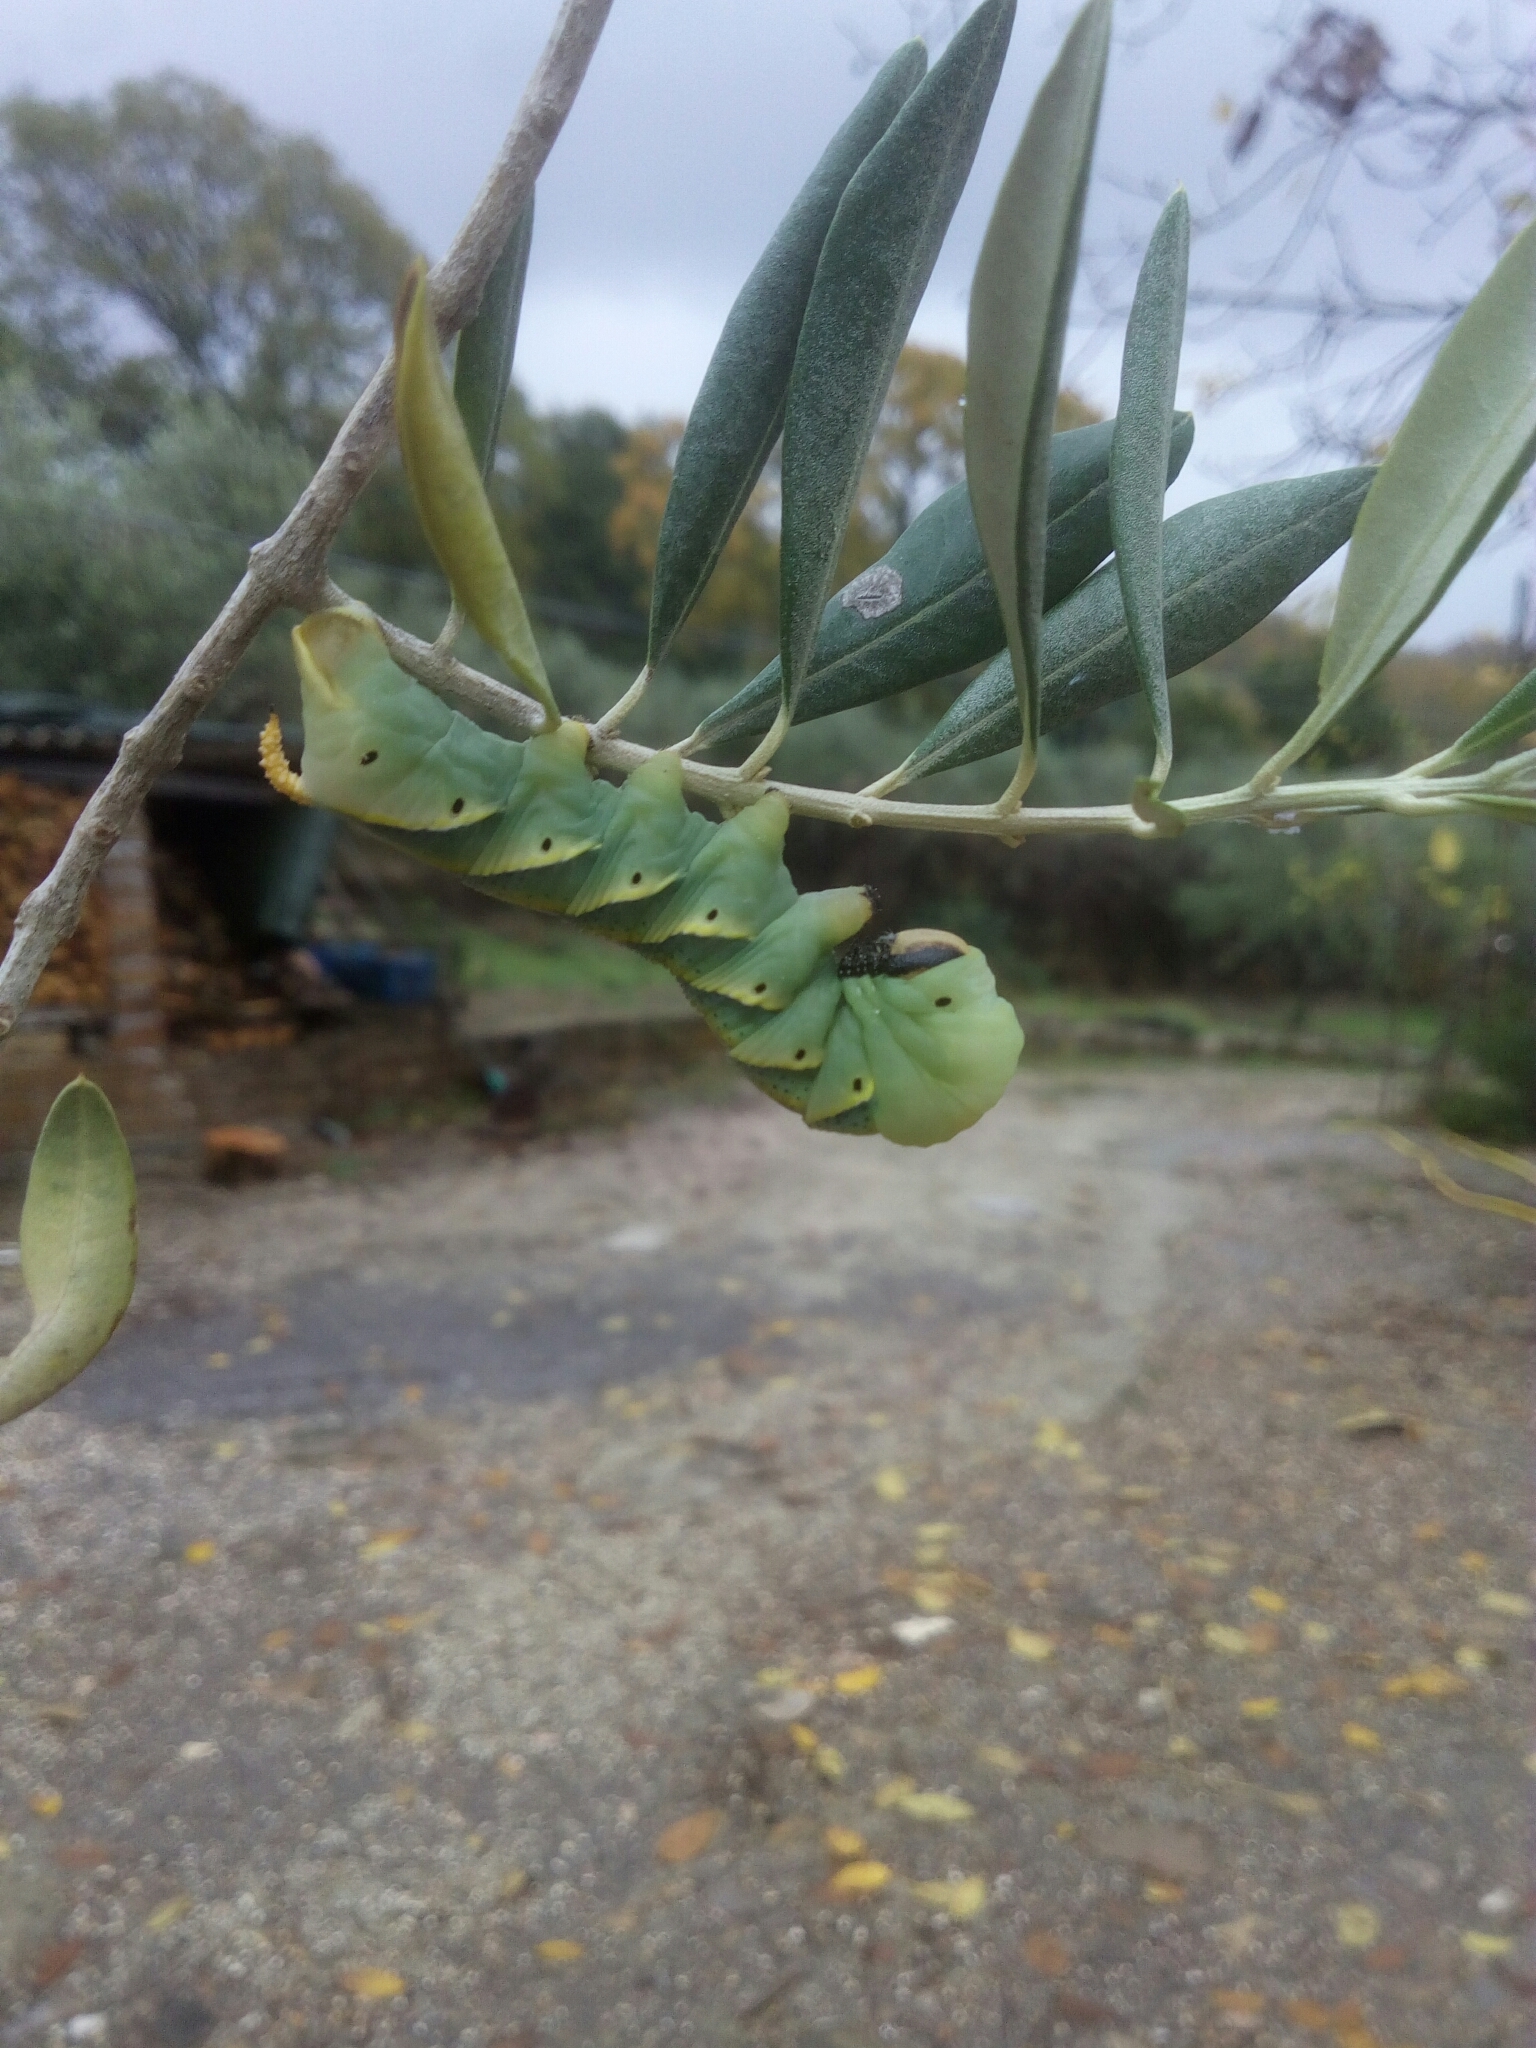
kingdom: Animalia
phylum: Arthropoda
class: Insecta
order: Lepidoptera
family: Sphingidae
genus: Acherontia
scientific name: Acherontia atropos
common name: Death's-head hawk moth
